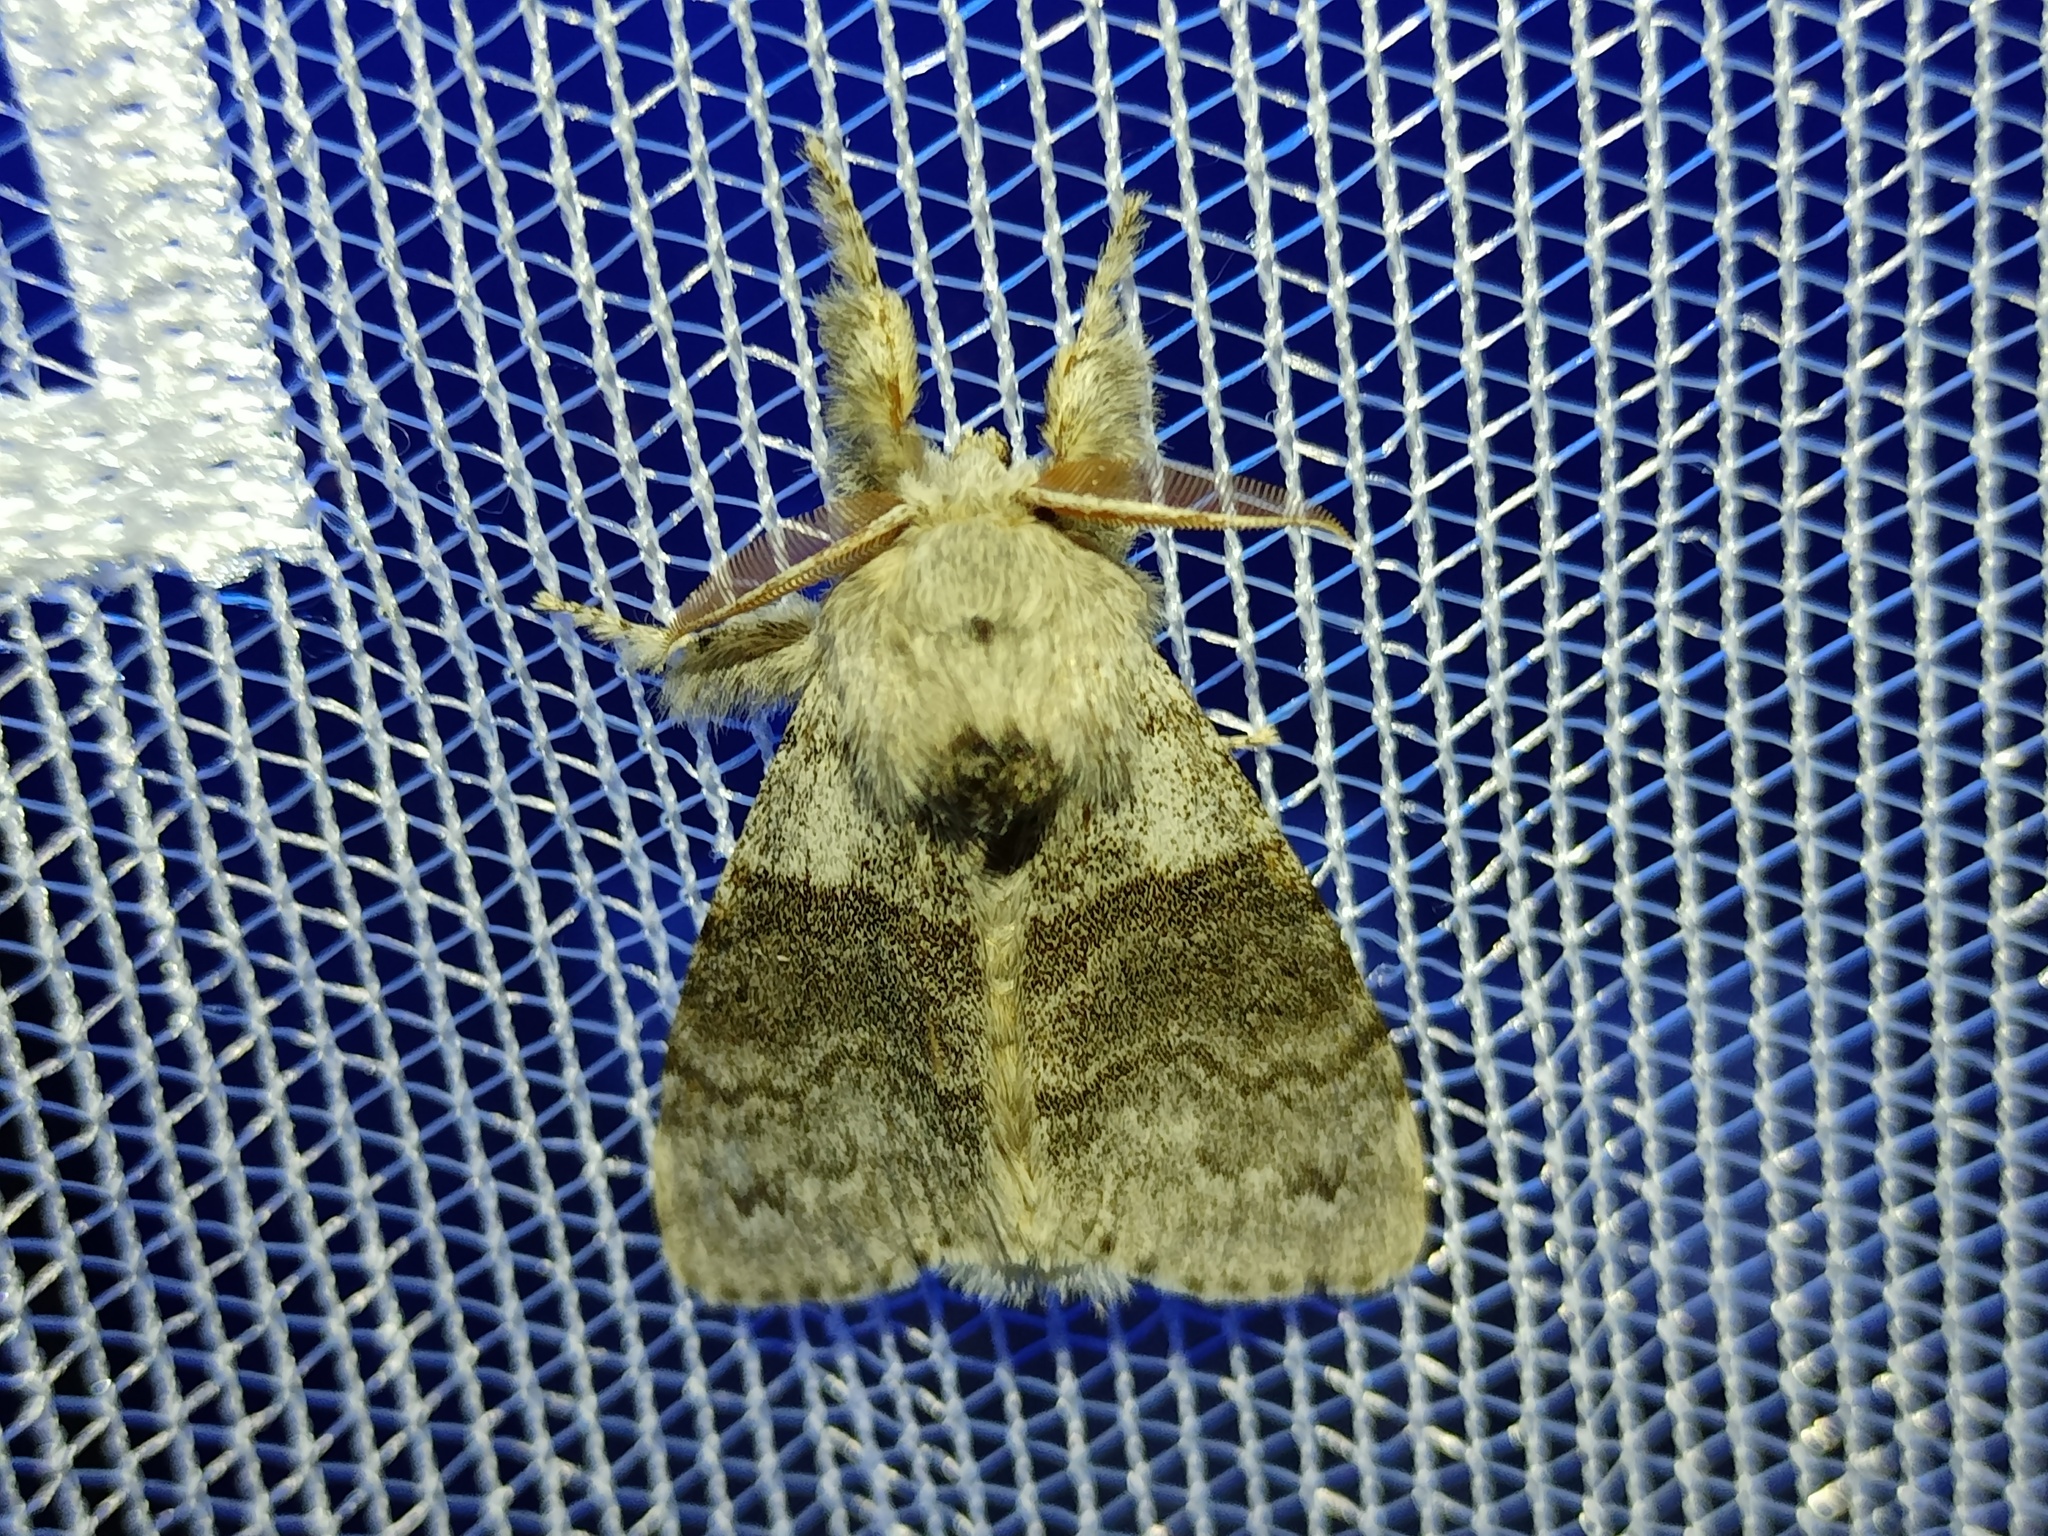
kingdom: Animalia
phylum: Arthropoda
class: Insecta
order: Lepidoptera
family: Erebidae
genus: Calliteara
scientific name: Calliteara pudibunda
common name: Pale tussock
